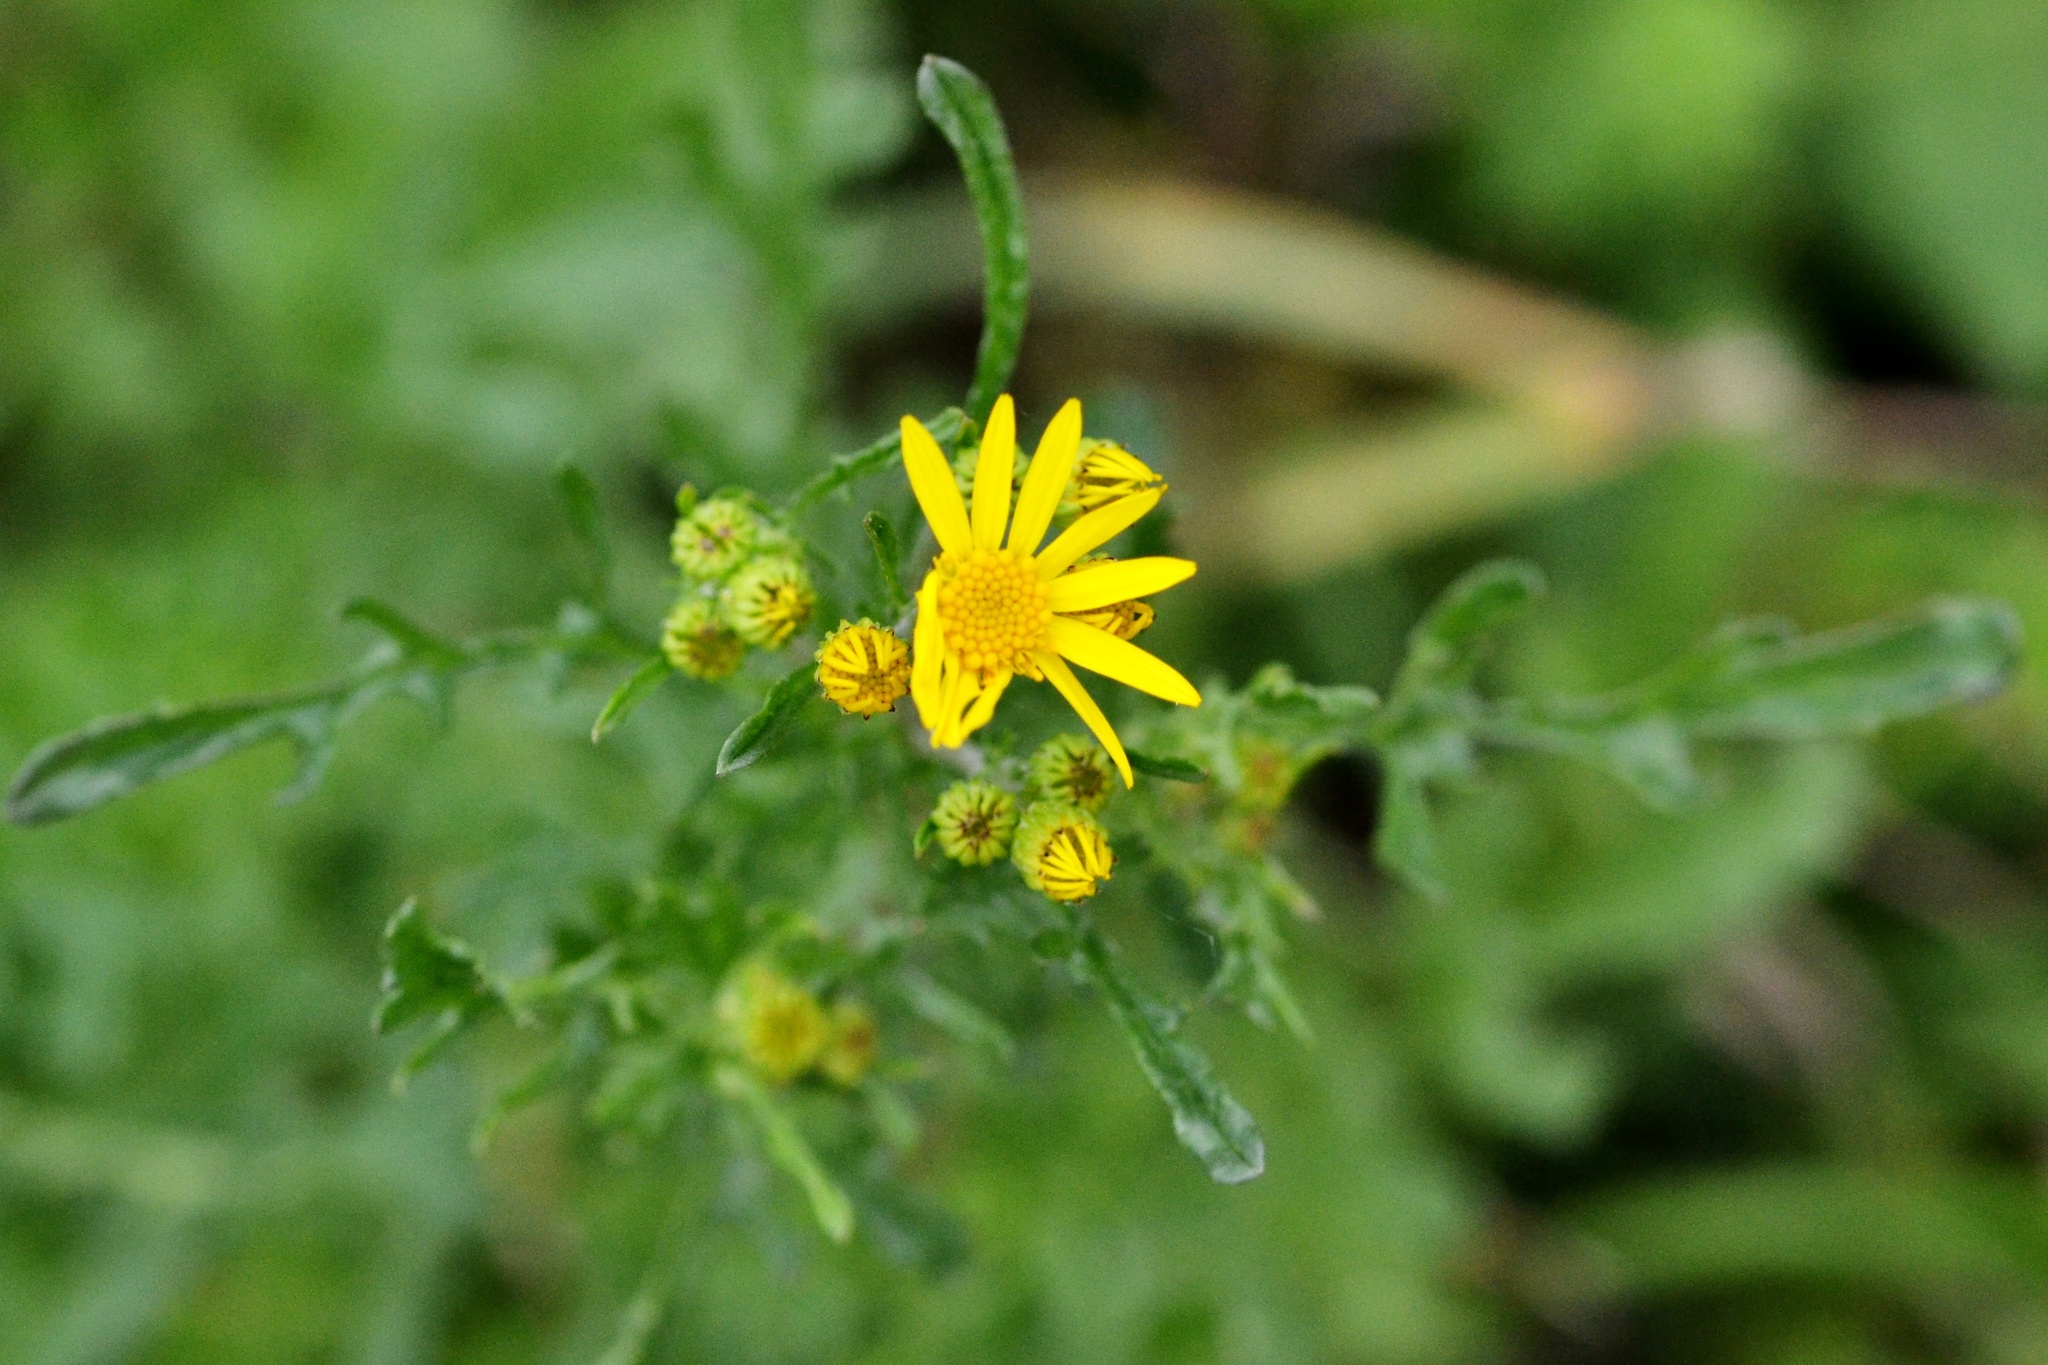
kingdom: Plantae
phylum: Tracheophyta
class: Magnoliopsida
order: Asterales
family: Asteraceae
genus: Jacobaea
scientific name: Jacobaea vulgaris
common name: Stinking willie
